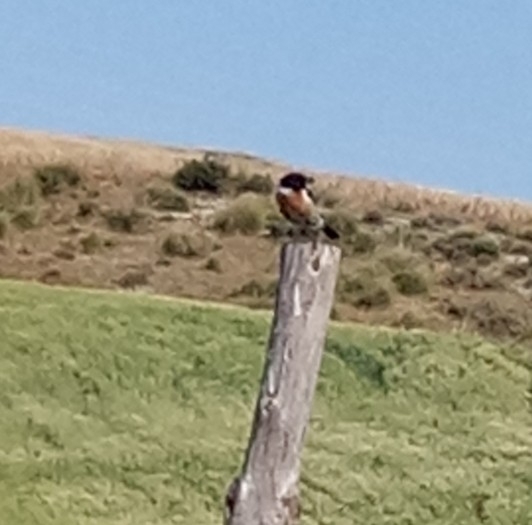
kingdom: Animalia
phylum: Chordata
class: Aves
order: Passeriformes
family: Muscicapidae
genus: Saxicola
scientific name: Saxicola rubicola
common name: European stonechat
